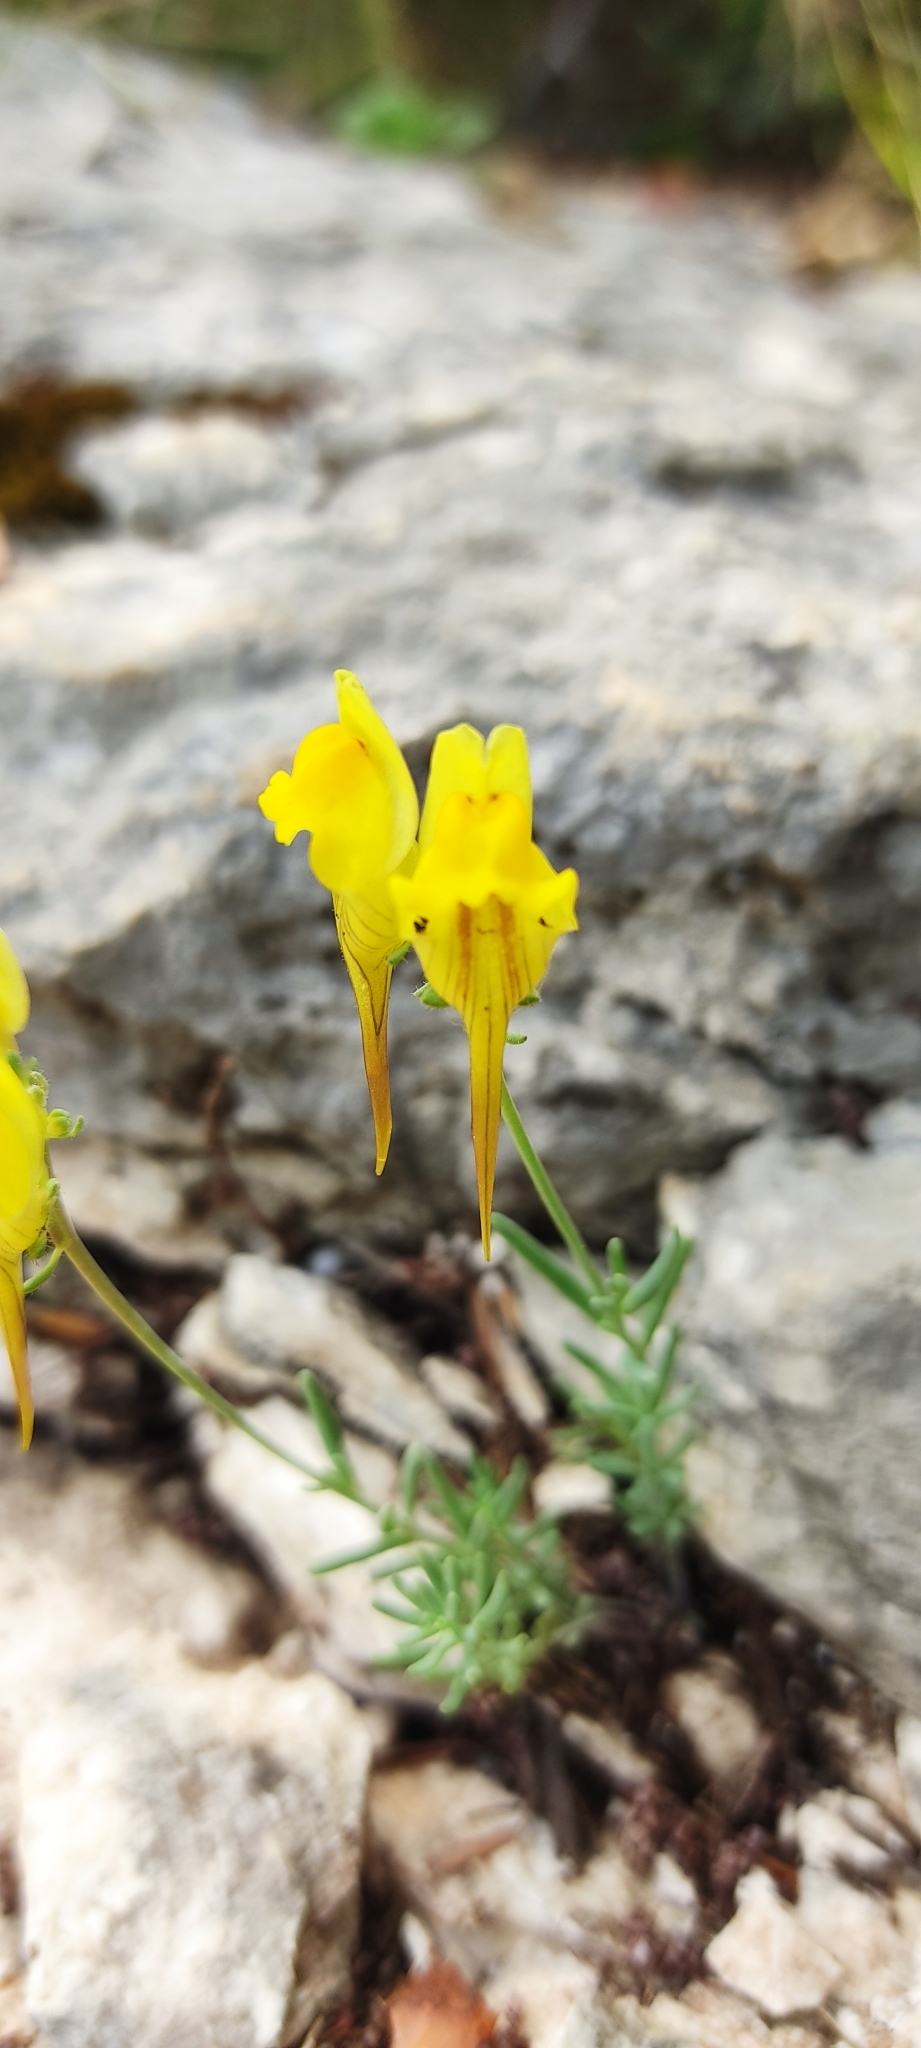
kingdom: Plantae
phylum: Tracheophyta
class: Magnoliopsida
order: Lamiales
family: Plantaginaceae
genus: Linaria
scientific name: Linaria supina
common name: Prostrate toadflax
